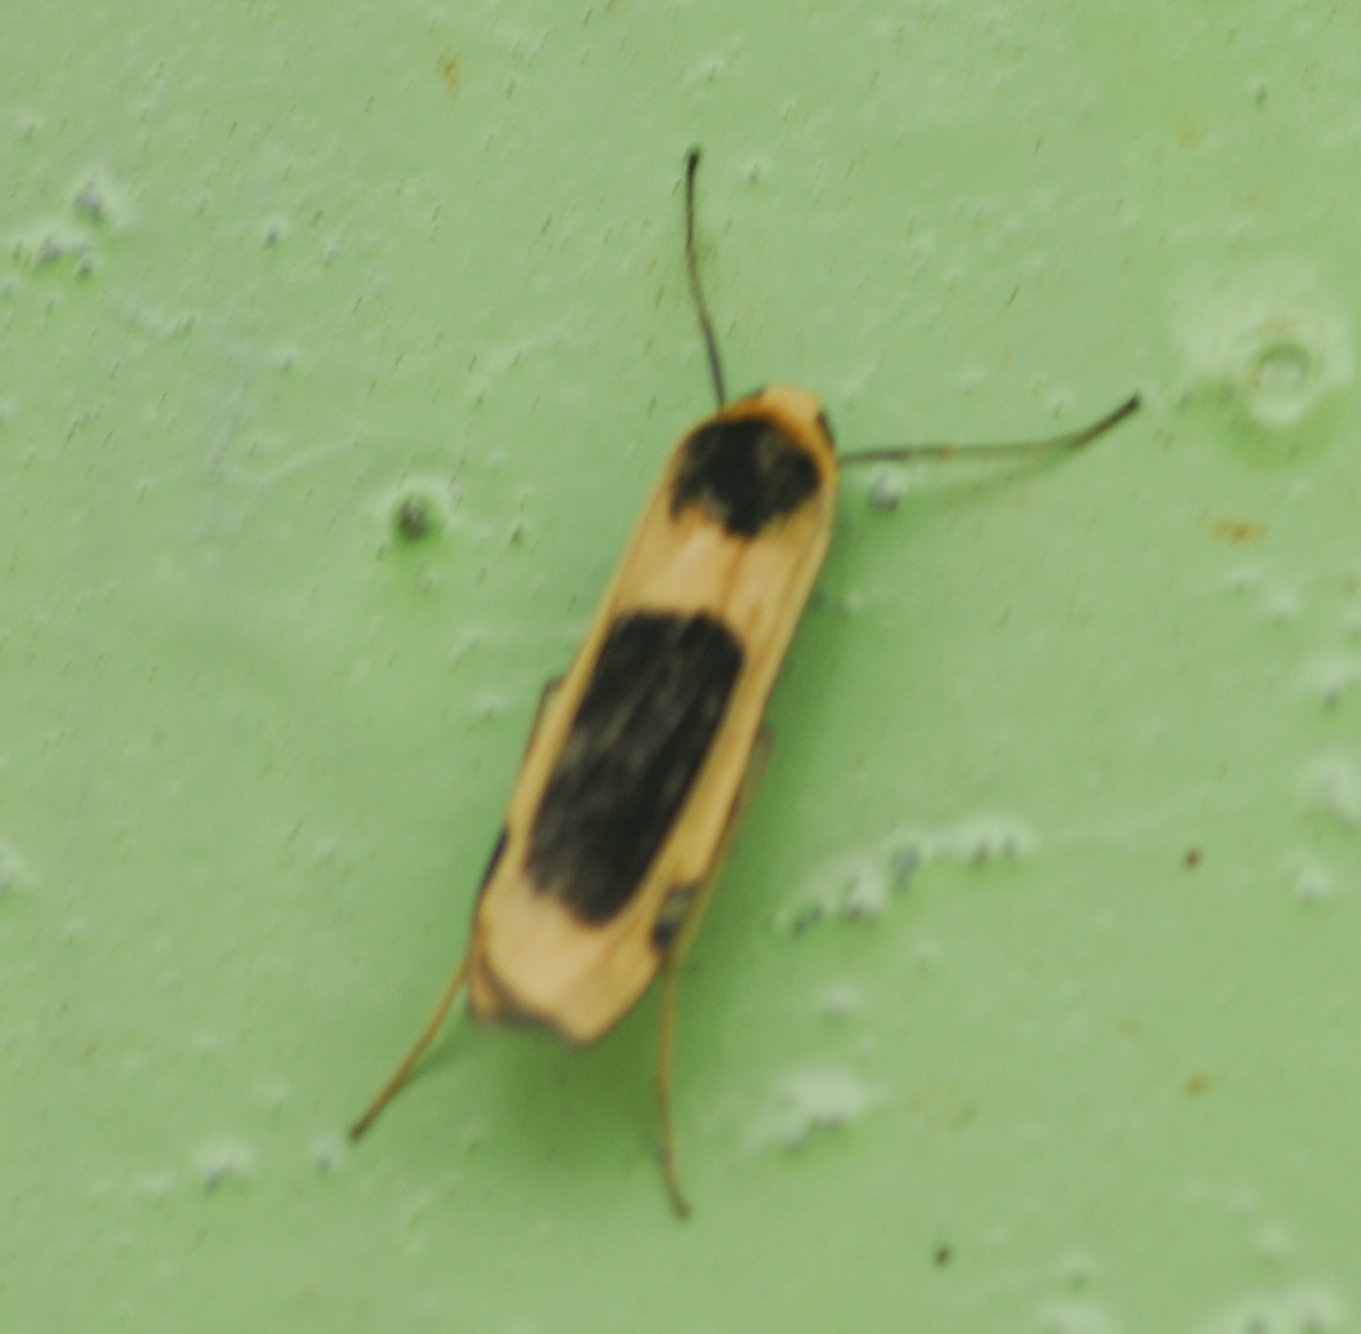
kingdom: Animalia
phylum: Arthropoda
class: Insecta
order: Lepidoptera
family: Erebidae
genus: Thysanoptyx
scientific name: Thysanoptyx tetragona
